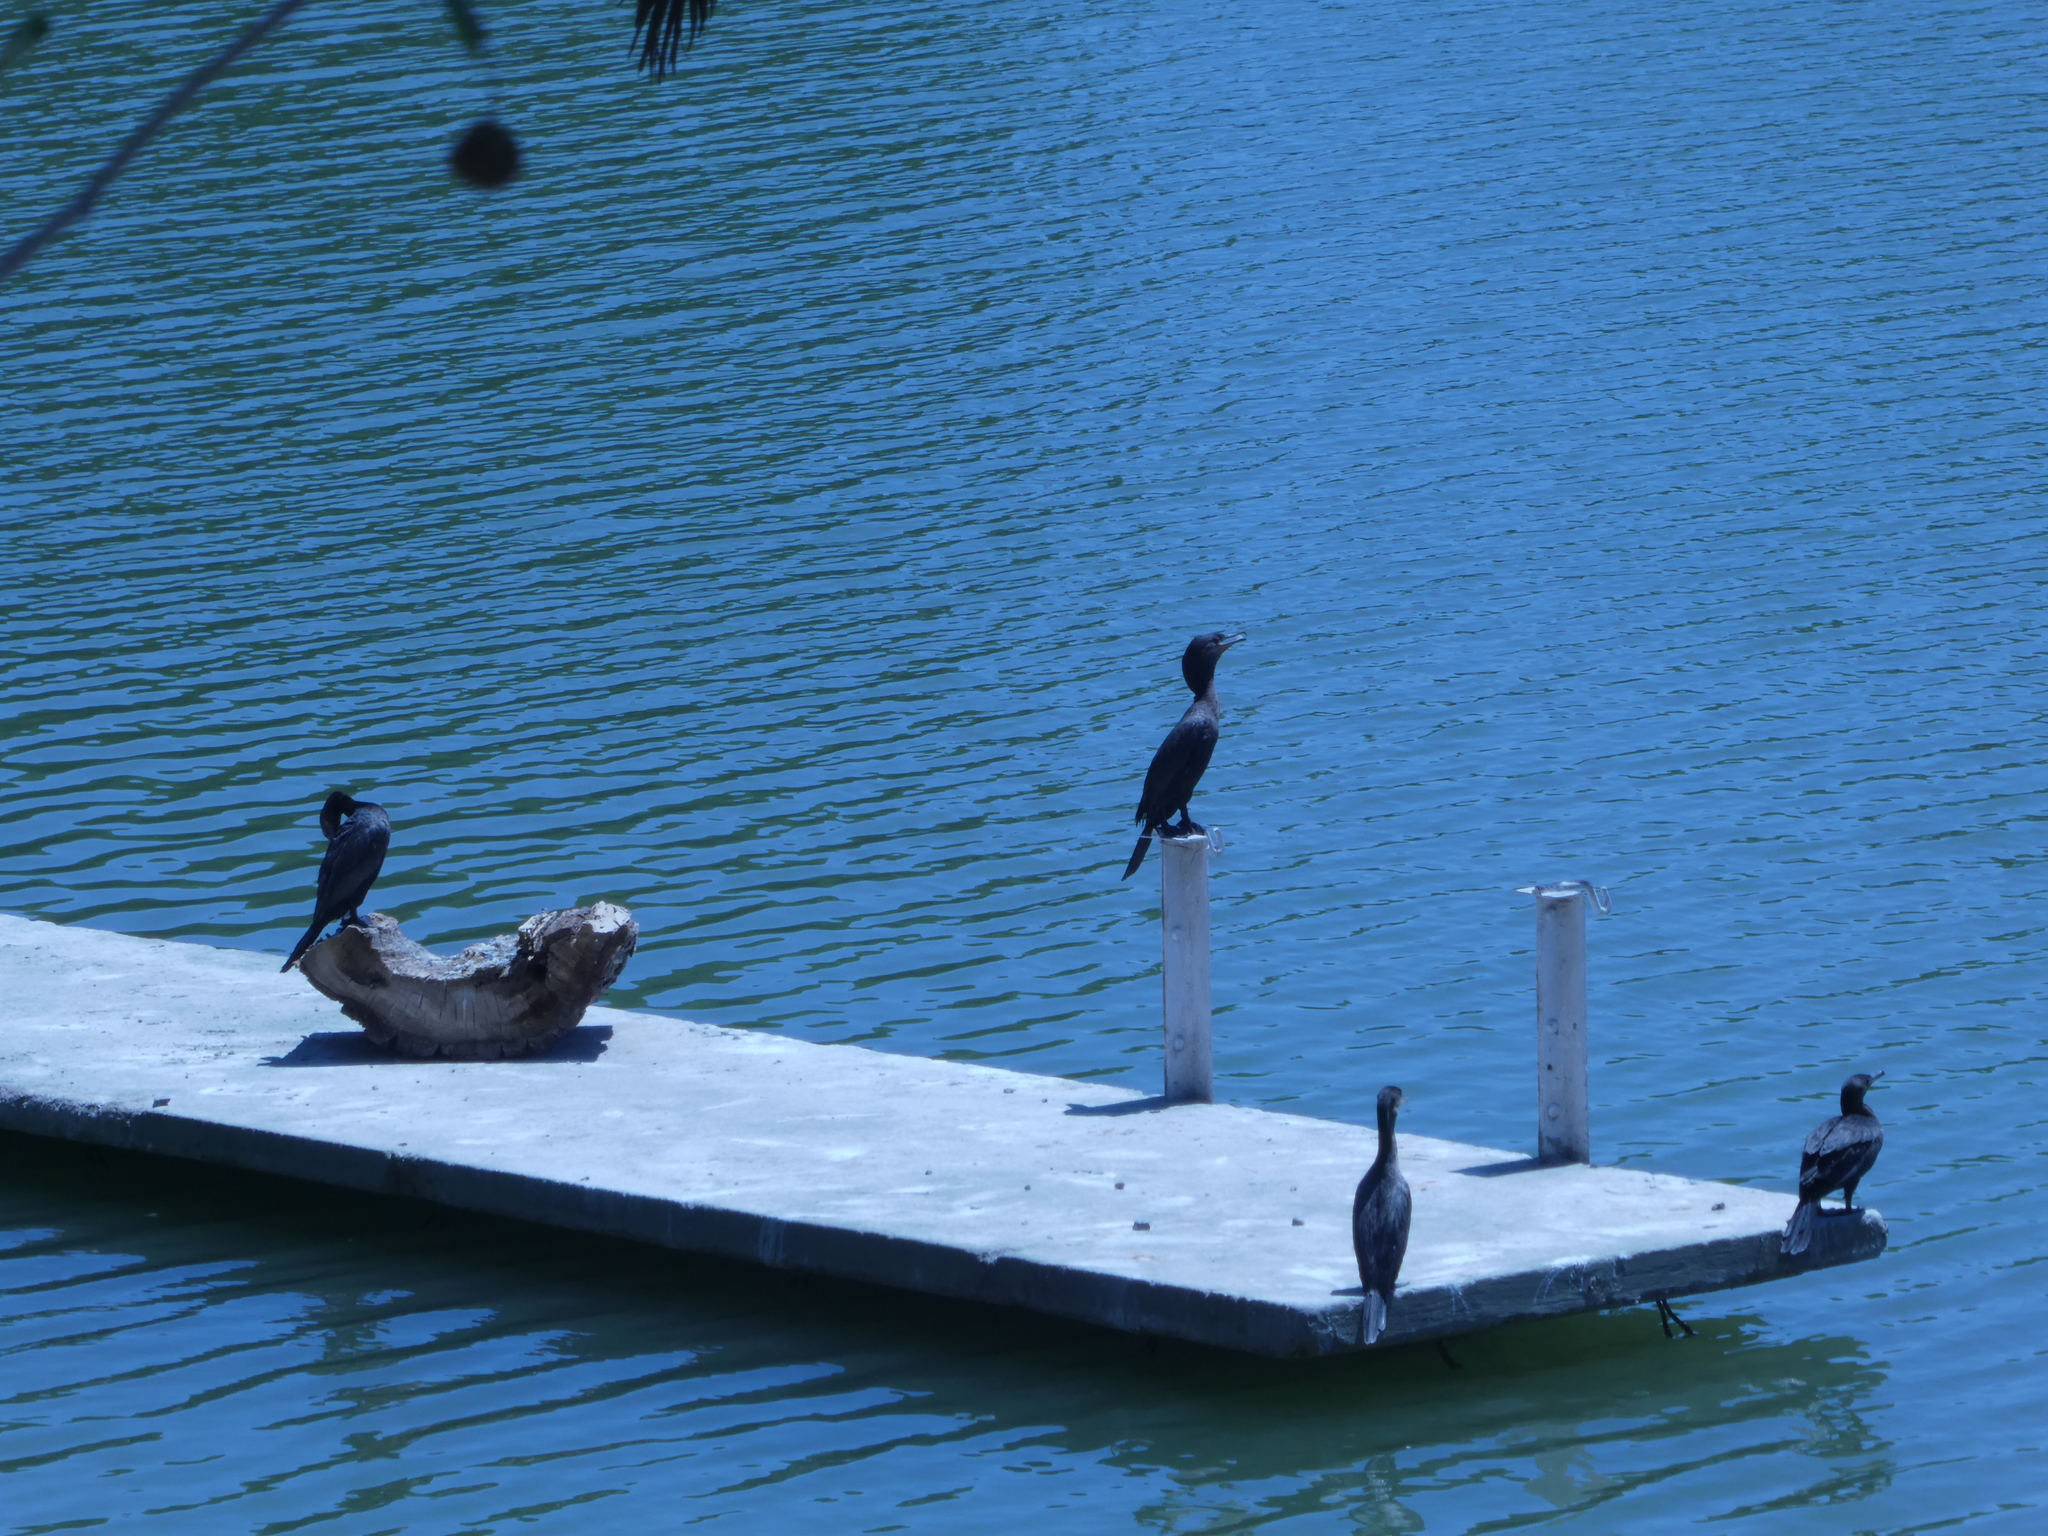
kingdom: Animalia
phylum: Chordata
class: Aves
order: Suliformes
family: Phalacrocoracidae
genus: Phalacrocorax
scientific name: Phalacrocorax brasilianus
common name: Neotropic cormorant
